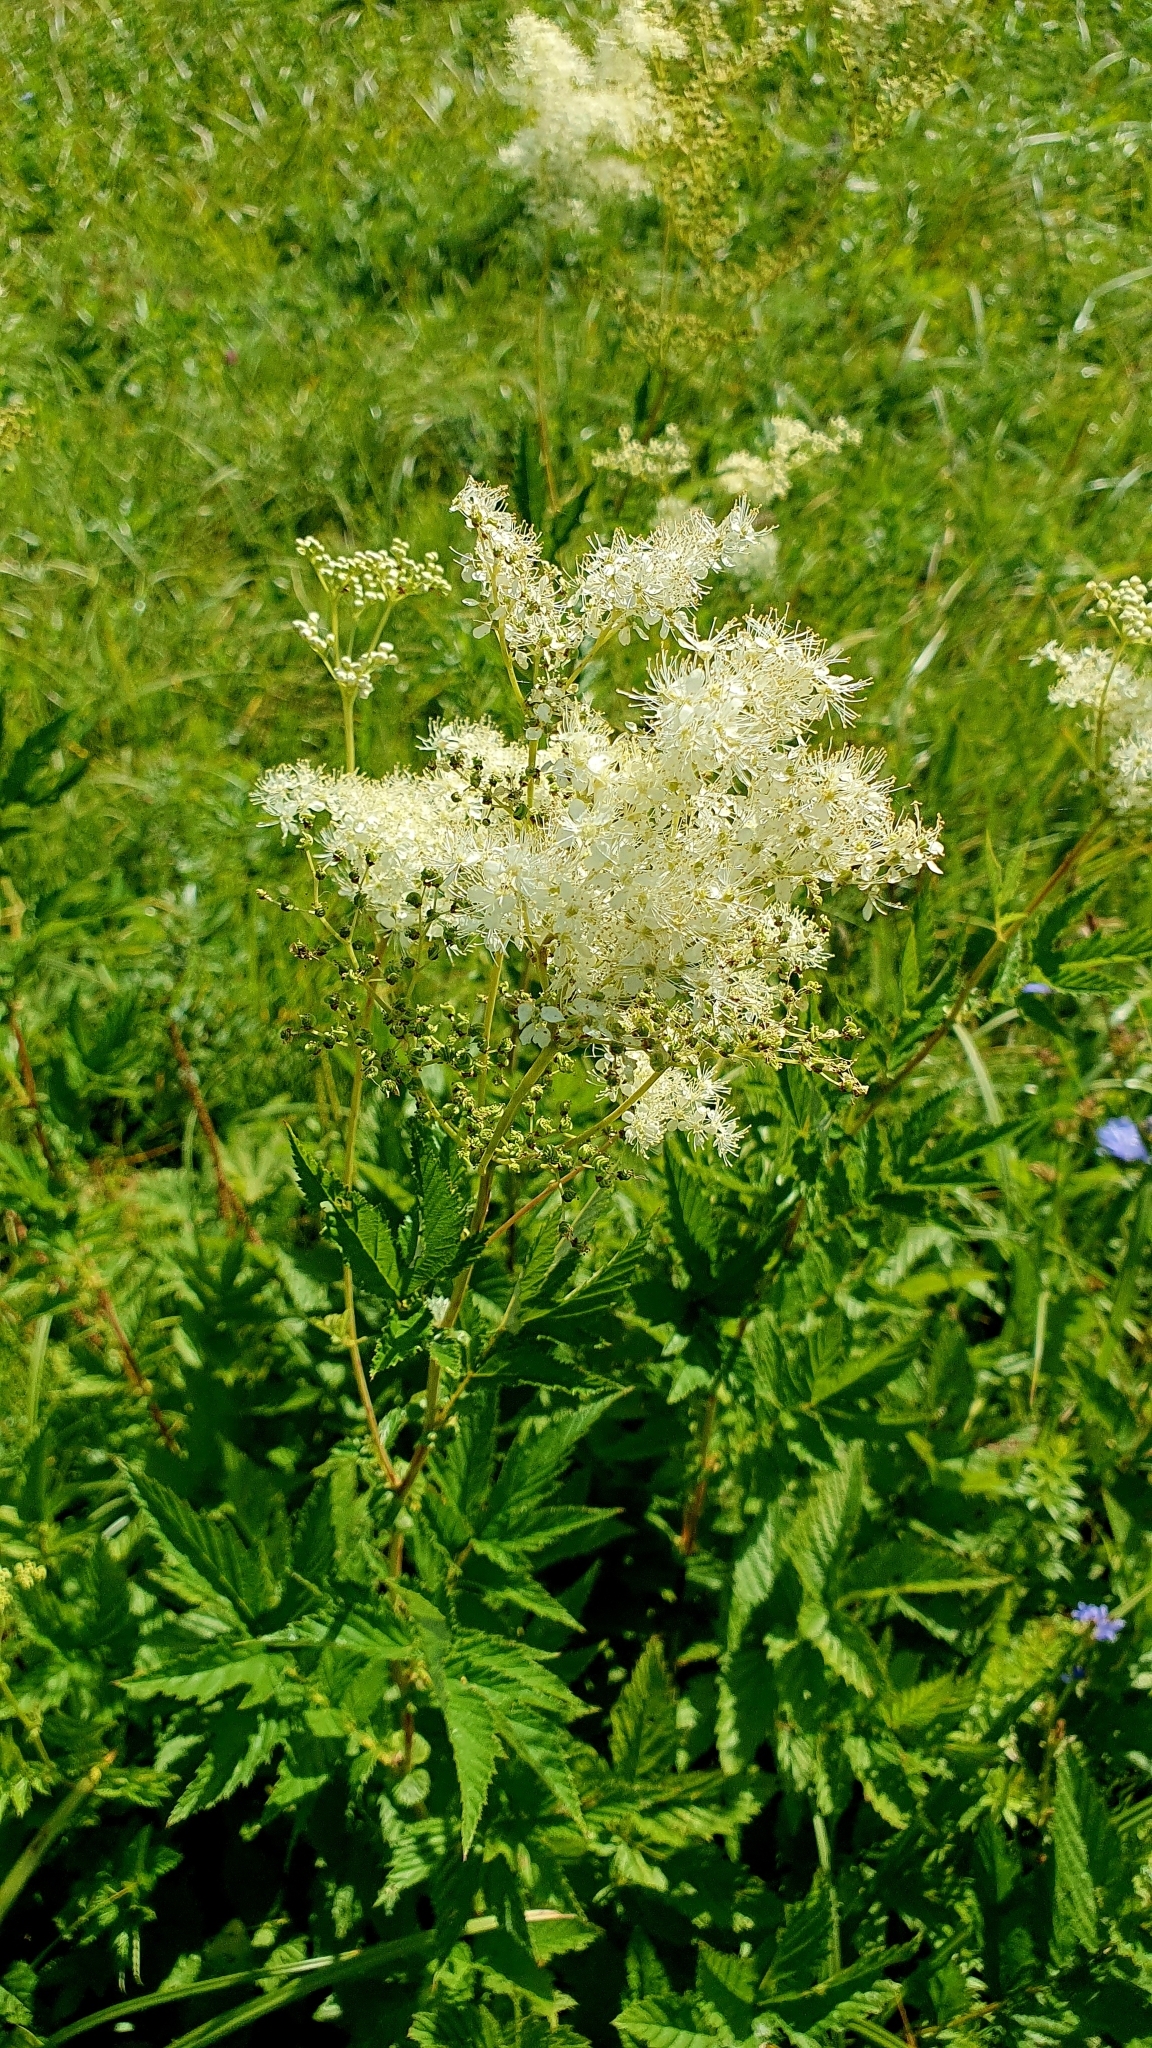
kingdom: Plantae
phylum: Tracheophyta
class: Magnoliopsida
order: Rosales
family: Rosaceae
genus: Filipendula
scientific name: Filipendula ulmaria
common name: Meadowsweet
